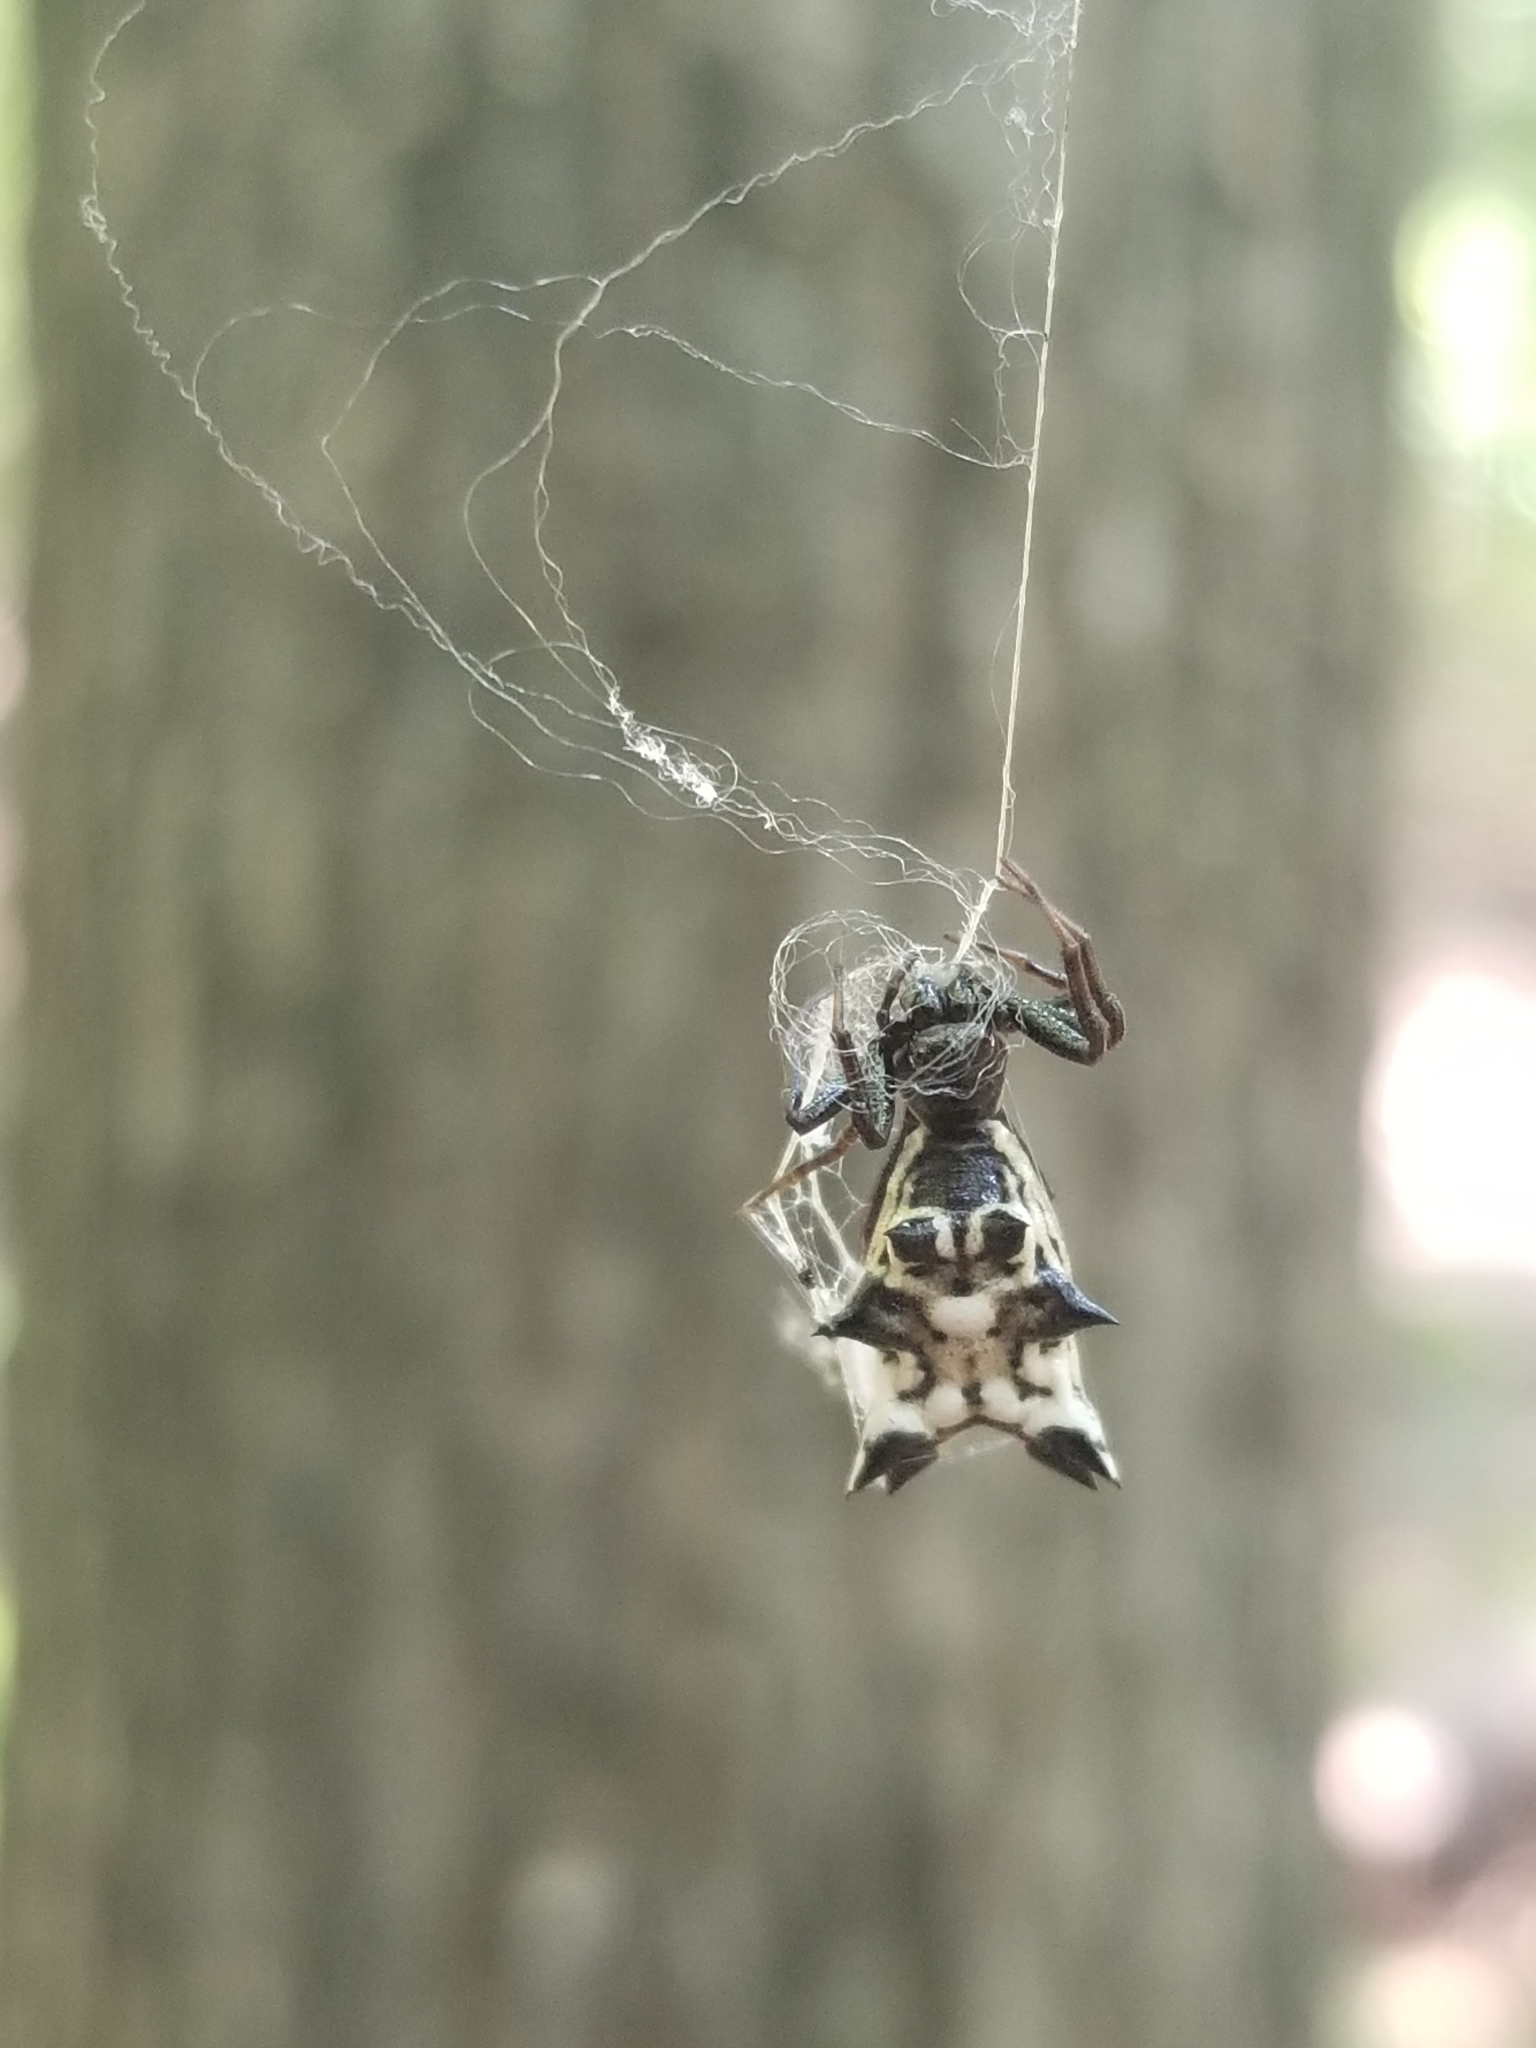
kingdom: Animalia
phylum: Arthropoda
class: Arachnida
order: Araneae
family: Araneidae
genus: Micrathena
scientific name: Micrathena gracilis
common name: Orb weavers
